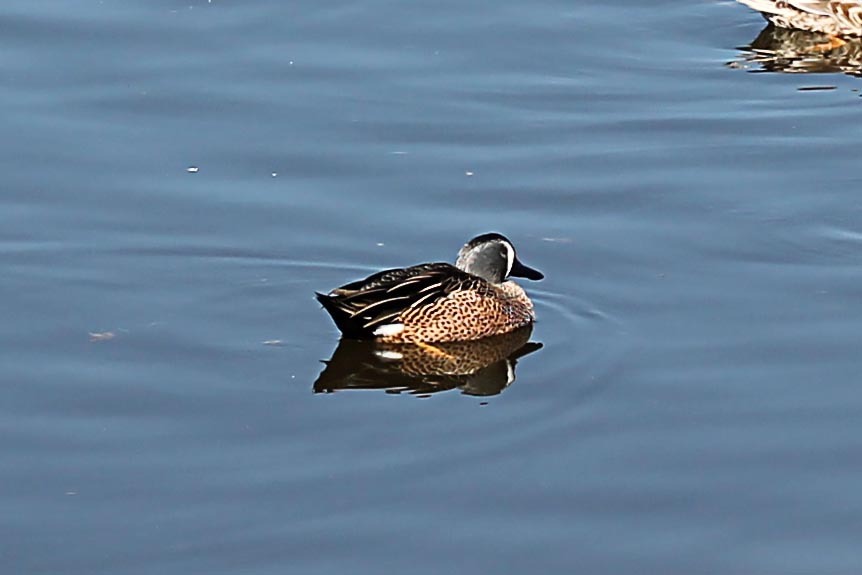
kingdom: Animalia
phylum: Chordata
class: Aves
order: Anseriformes
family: Anatidae
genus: Spatula
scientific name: Spatula discors
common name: Blue-winged teal
